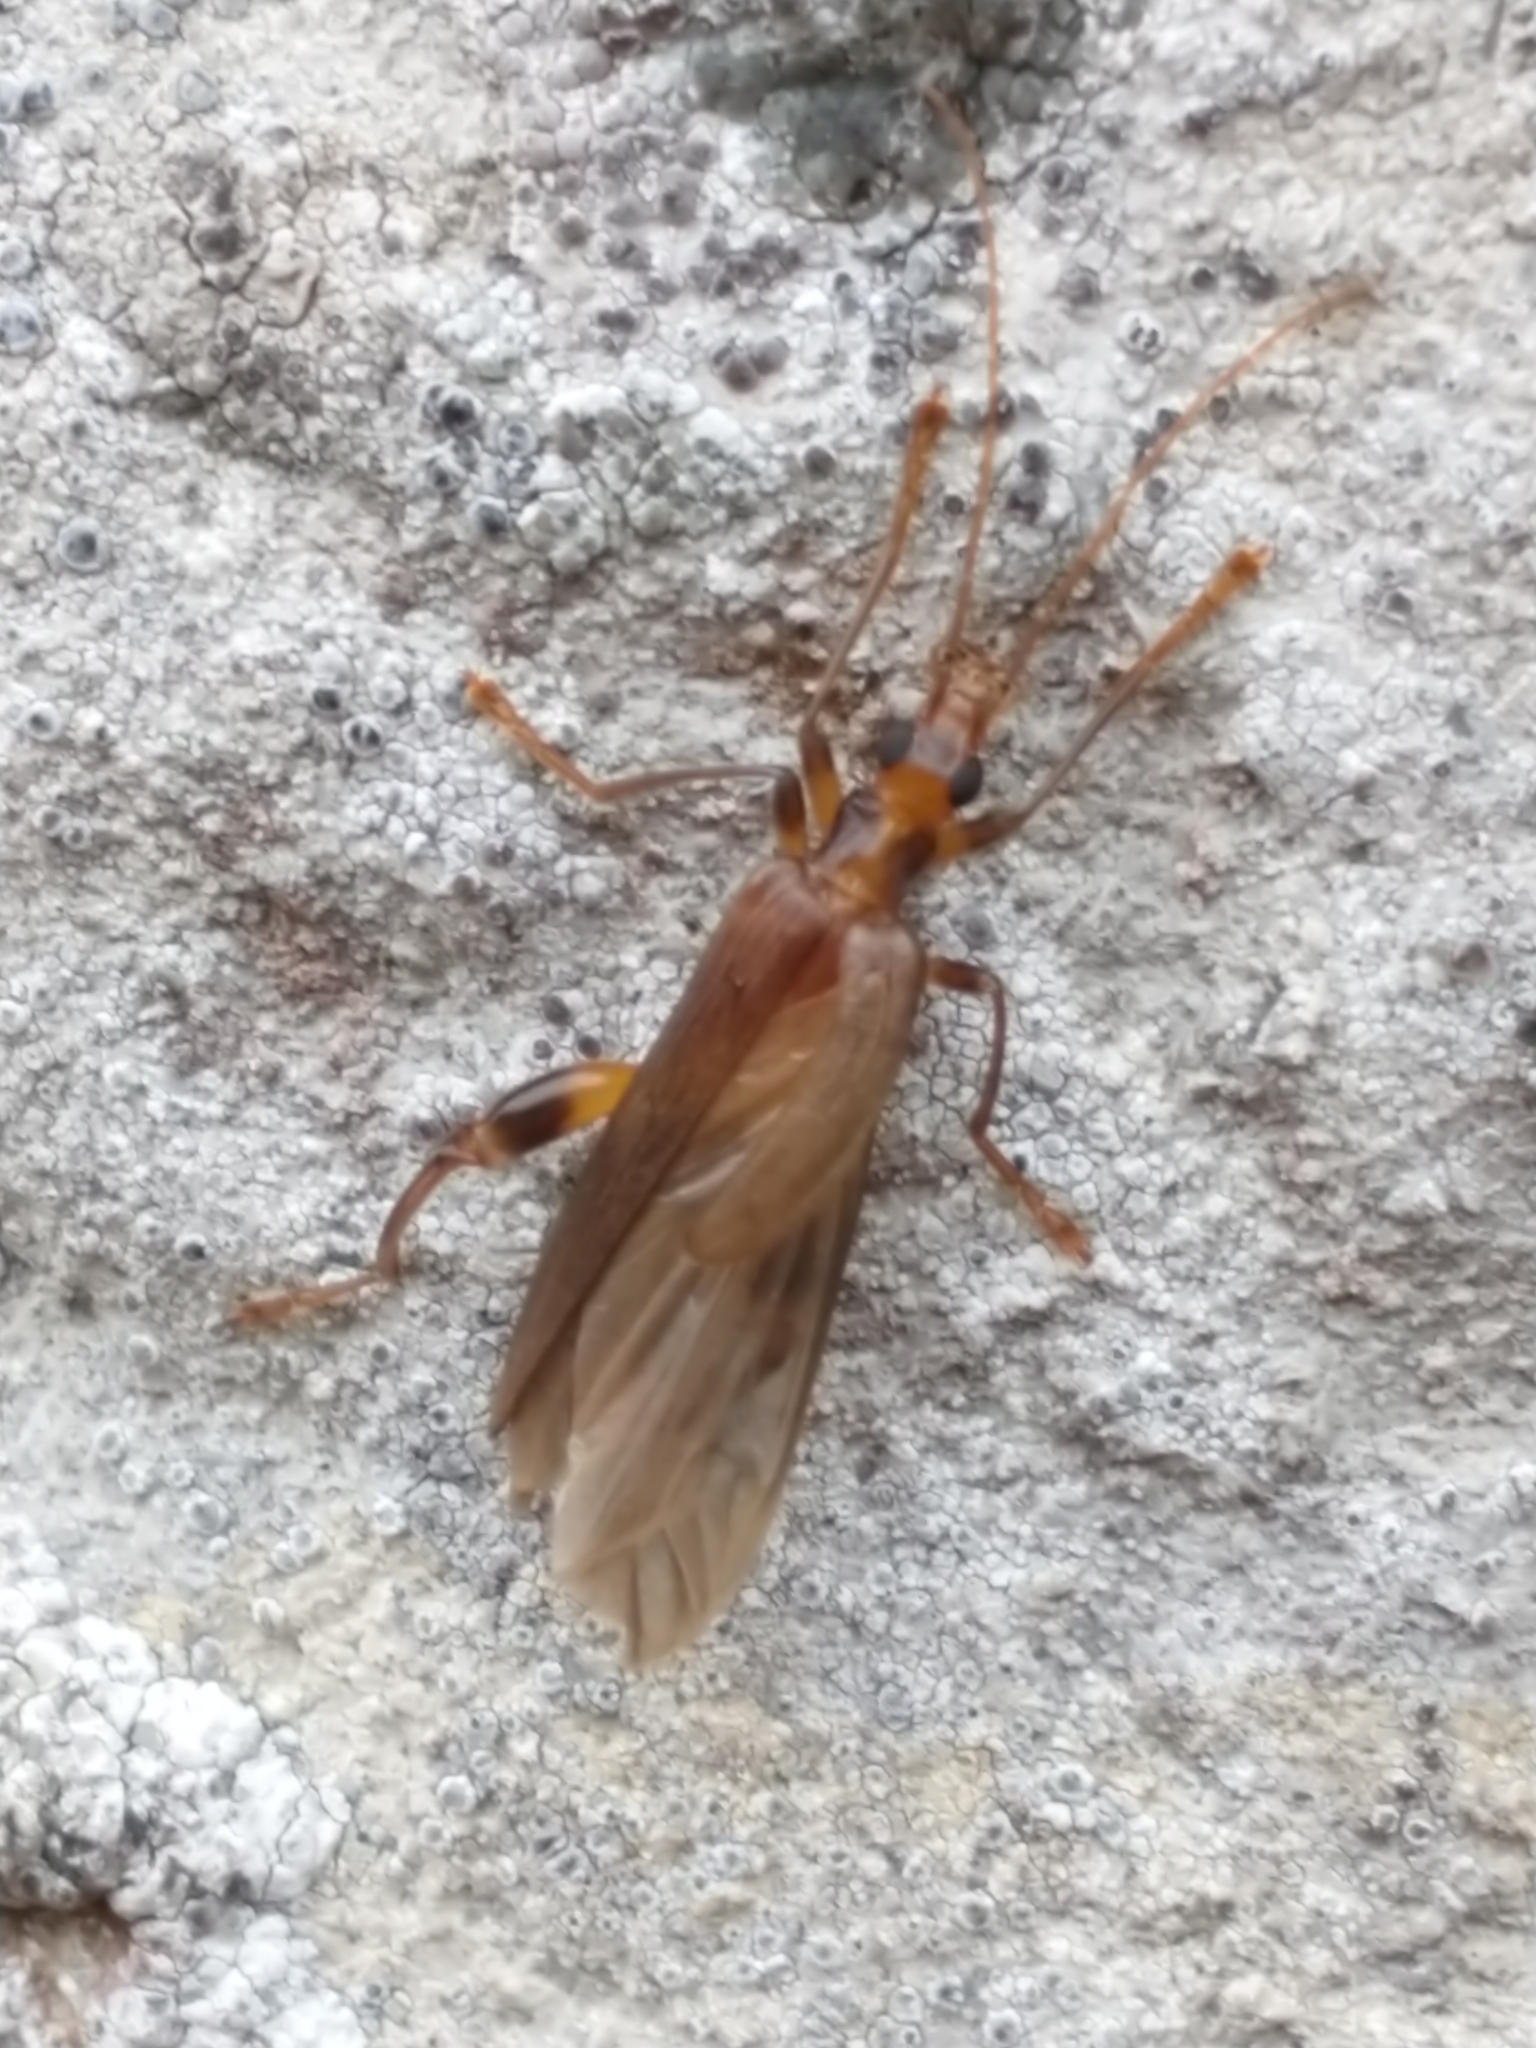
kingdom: Animalia
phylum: Arthropoda
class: Insecta
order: Coleoptera
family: Oedemeridae
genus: Oedemera
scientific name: Oedemera femoralis
